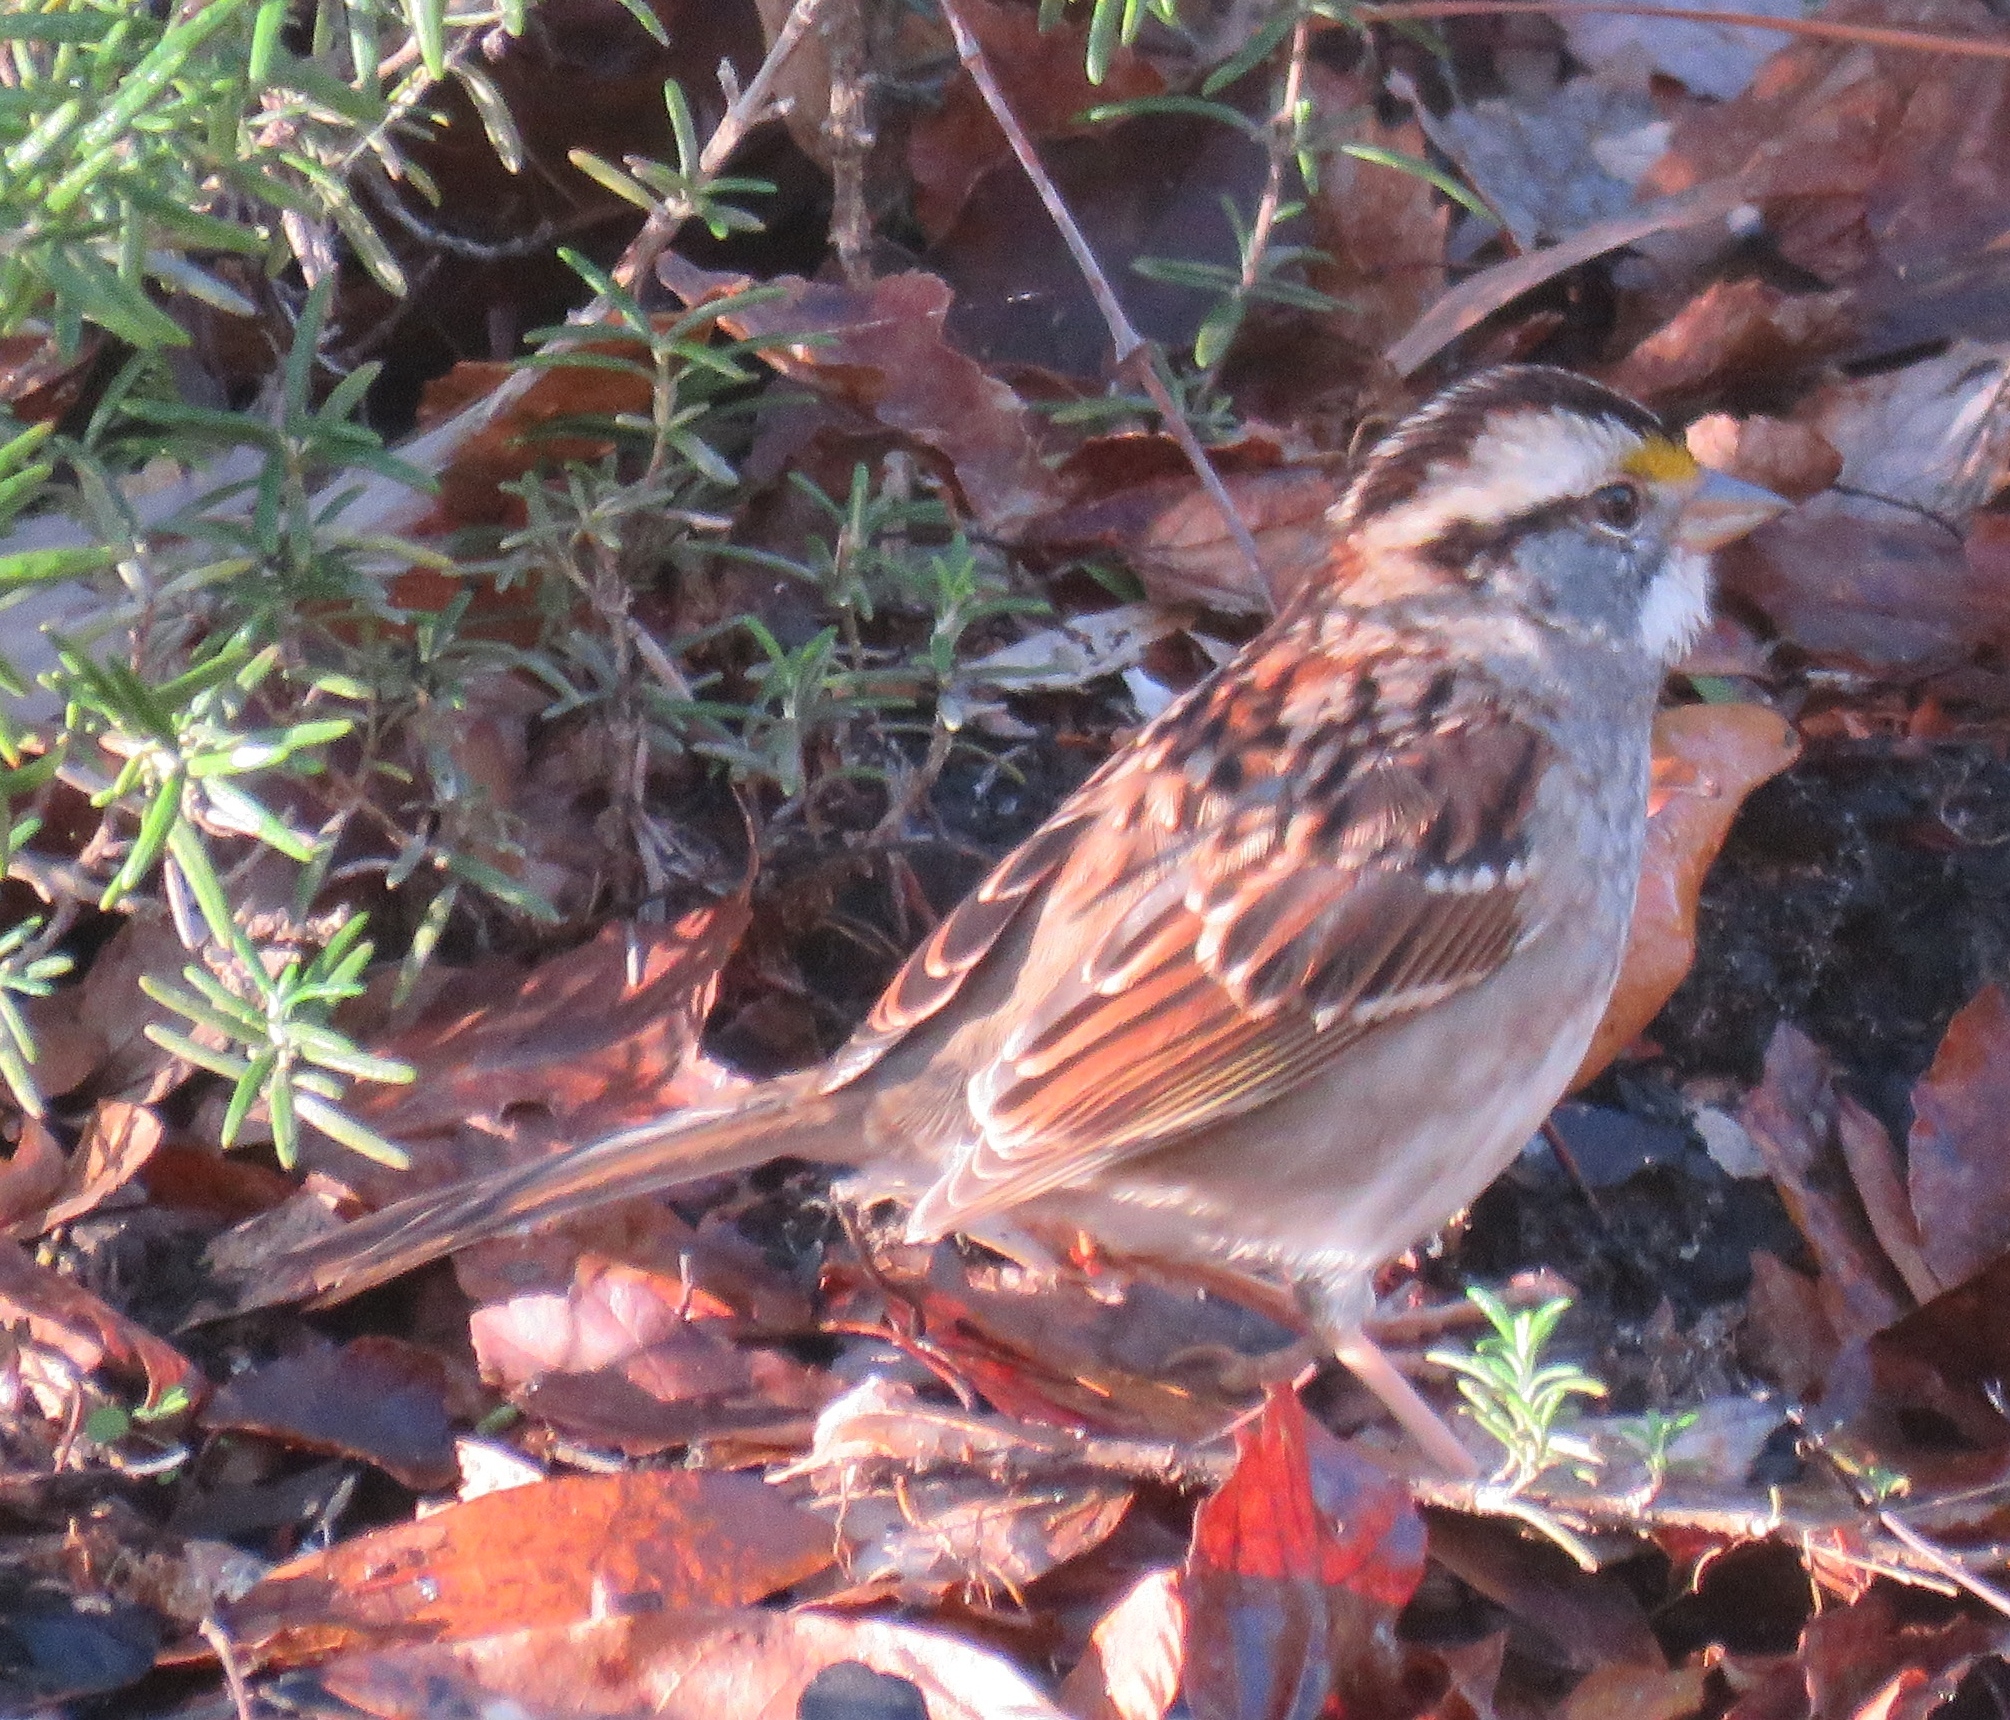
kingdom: Animalia
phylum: Chordata
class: Aves
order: Passeriformes
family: Passerellidae
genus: Zonotrichia
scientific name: Zonotrichia albicollis
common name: White-throated sparrow
